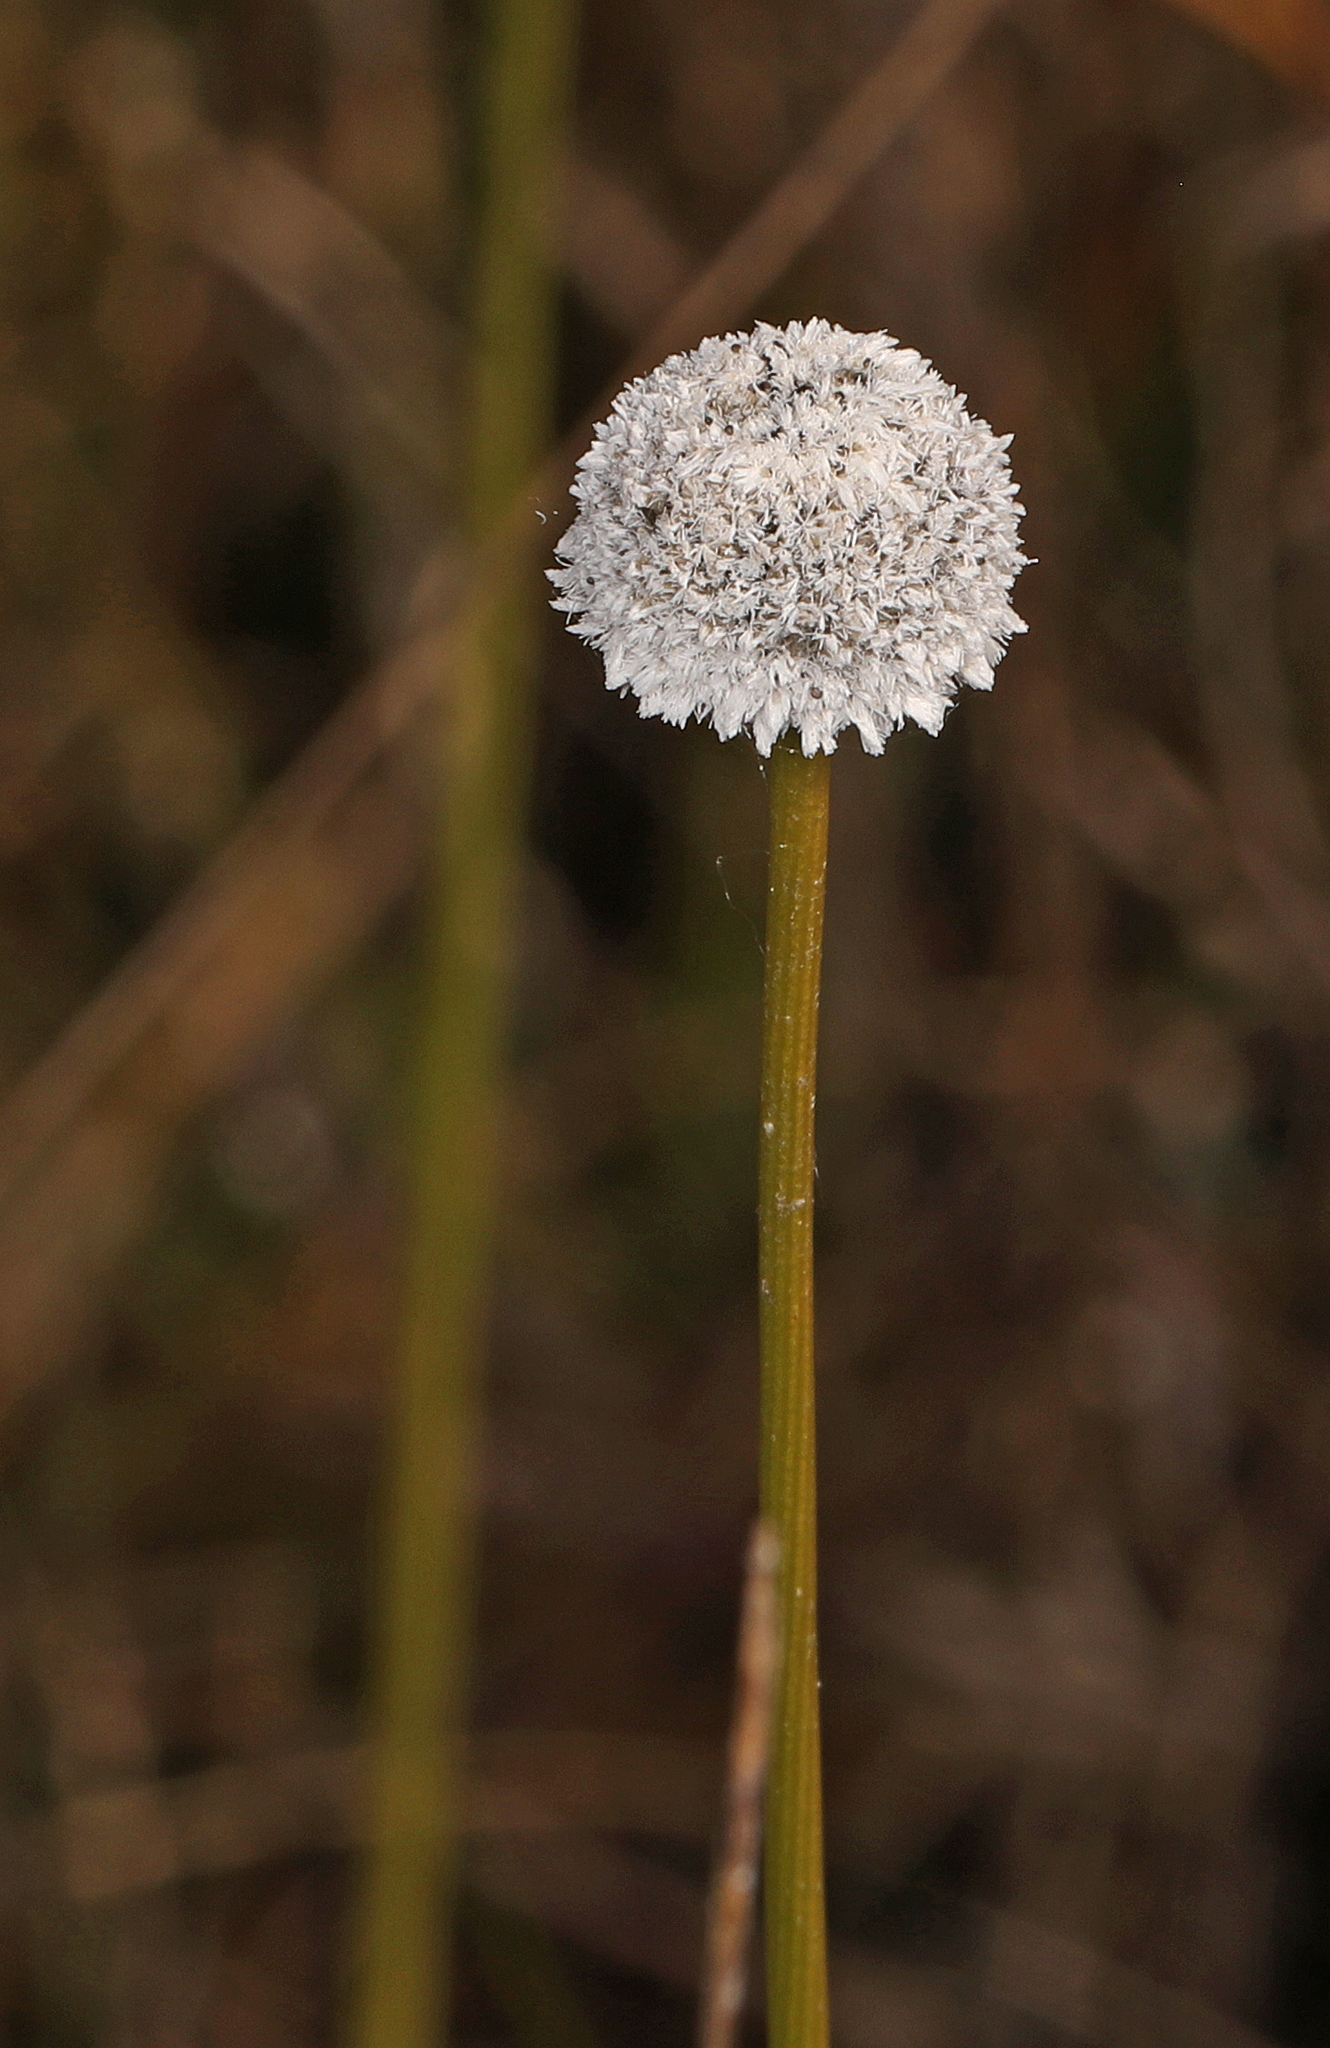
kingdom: Plantae
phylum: Tracheophyta
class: Liliopsida
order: Poales
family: Eriocaulaceae
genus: Eriocaulon
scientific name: Eriocaulon compressum
